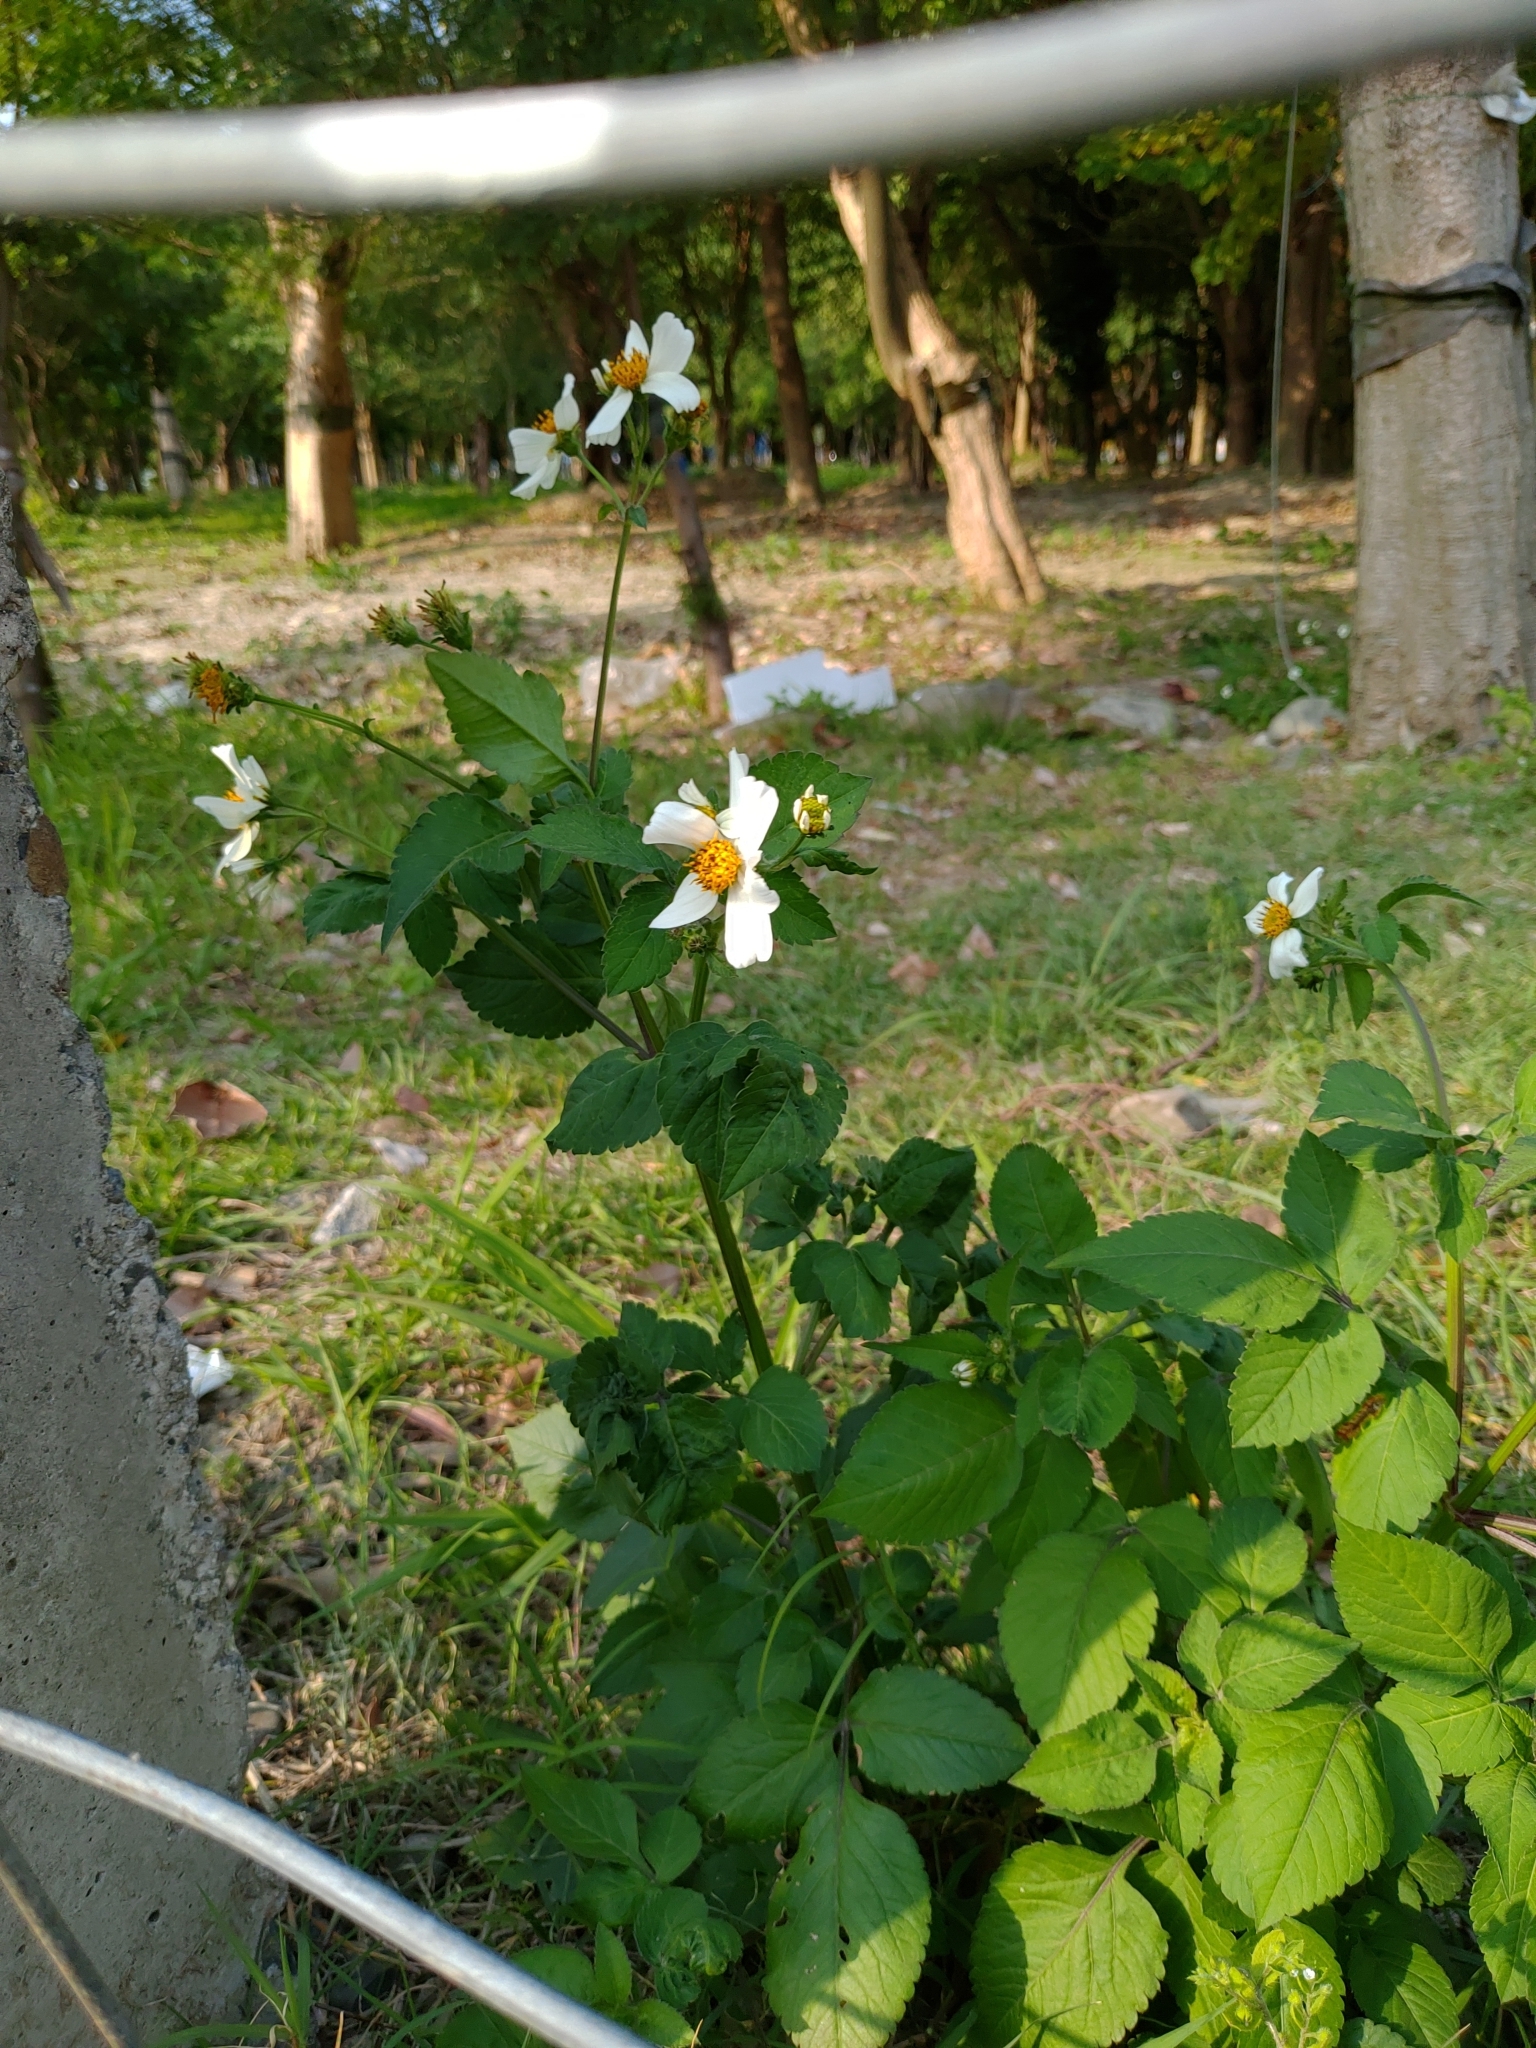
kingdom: Plantae
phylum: Tracheophyta
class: Magnoliopsida
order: Asterales
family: Asteraceae
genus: Bidens
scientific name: Bidens alba
